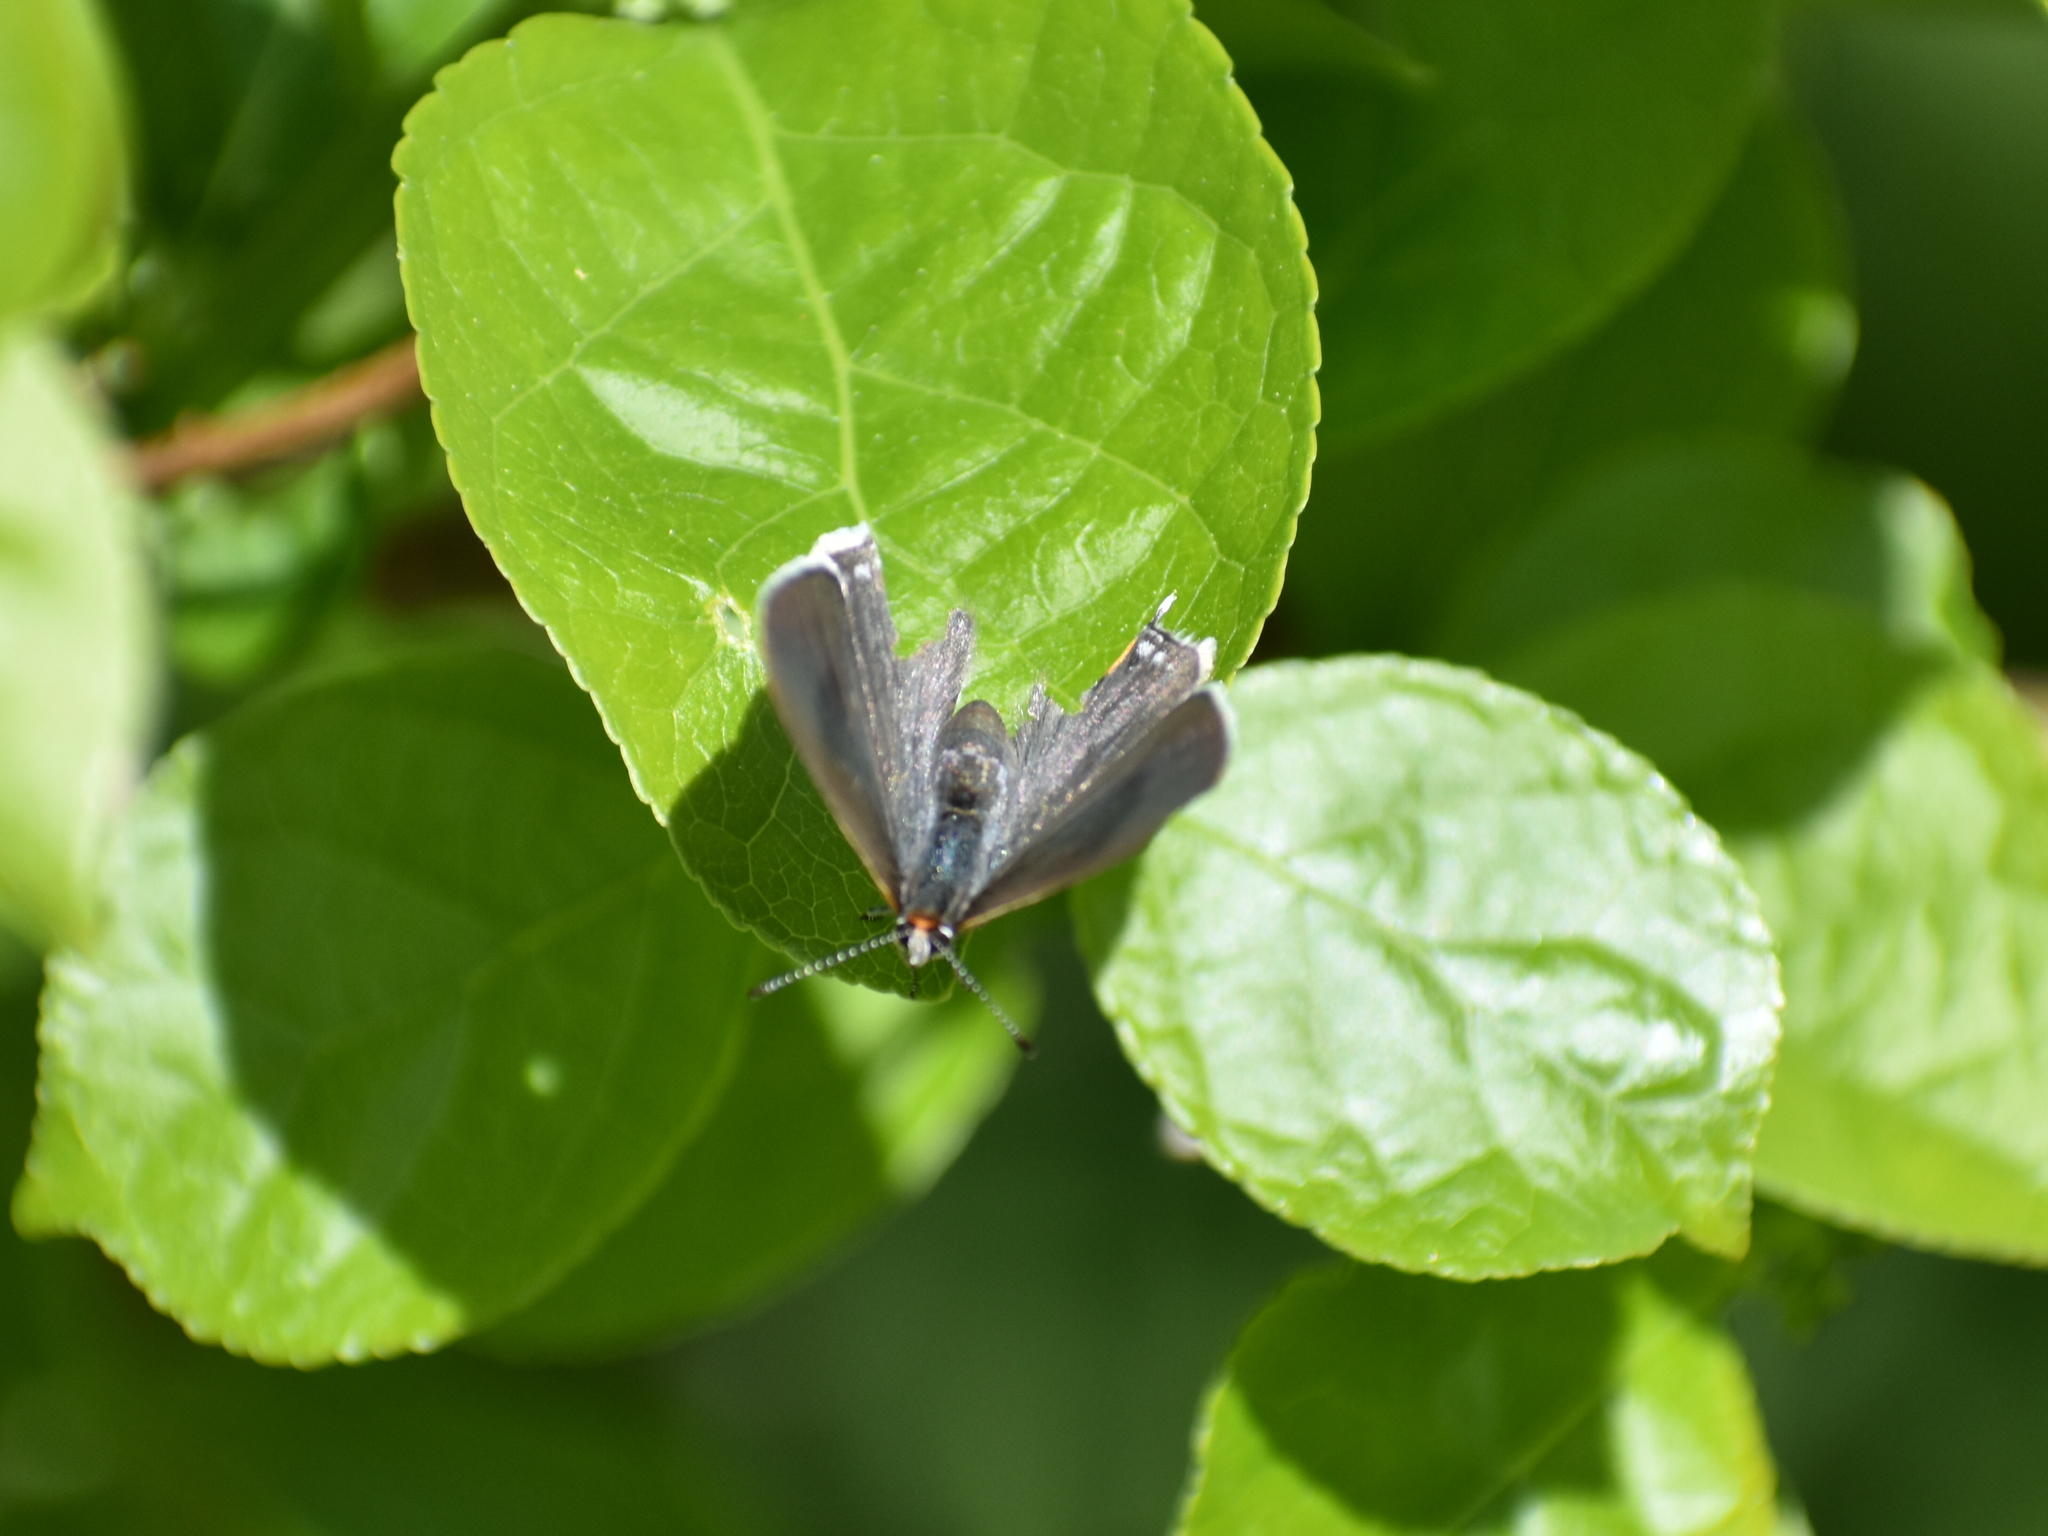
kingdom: Animalia
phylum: Arthropoda
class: Insecta
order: Lepidoptera
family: Lycaenidae
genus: Strymon
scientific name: Strymon melinus
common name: Gray hairstreak
